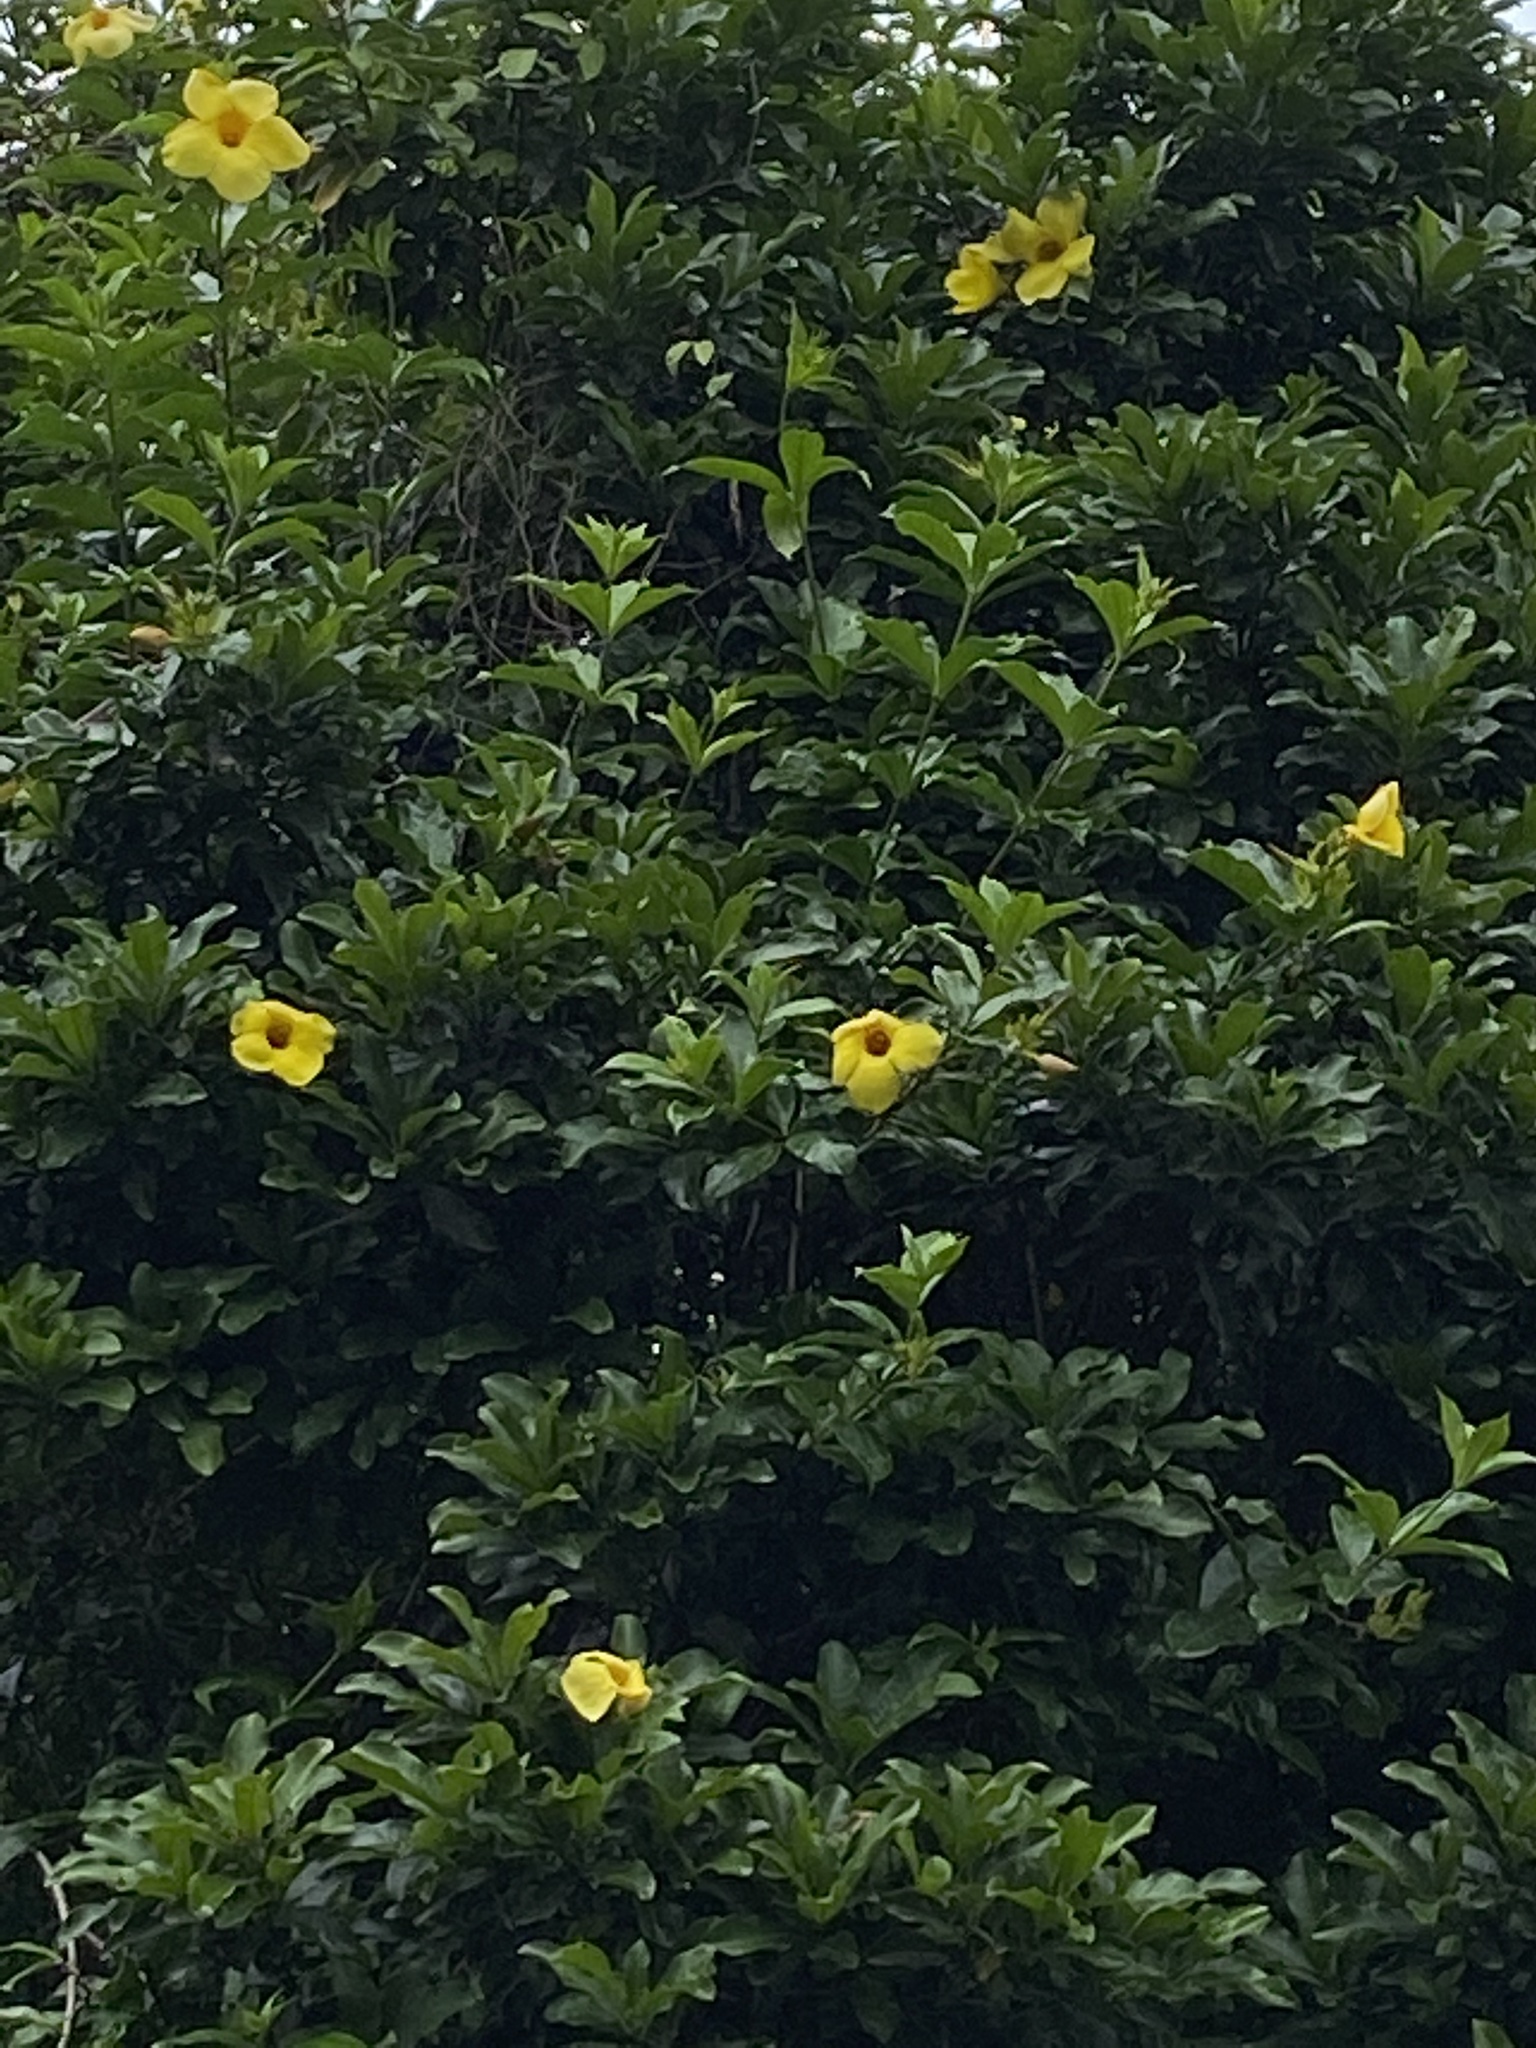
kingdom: Plantae
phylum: Tracheophyta
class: Magnoliopsida
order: Gentianales
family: Apocynaceae
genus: Allamanda
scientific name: Allamanda cathartica
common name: Golden trumpet
